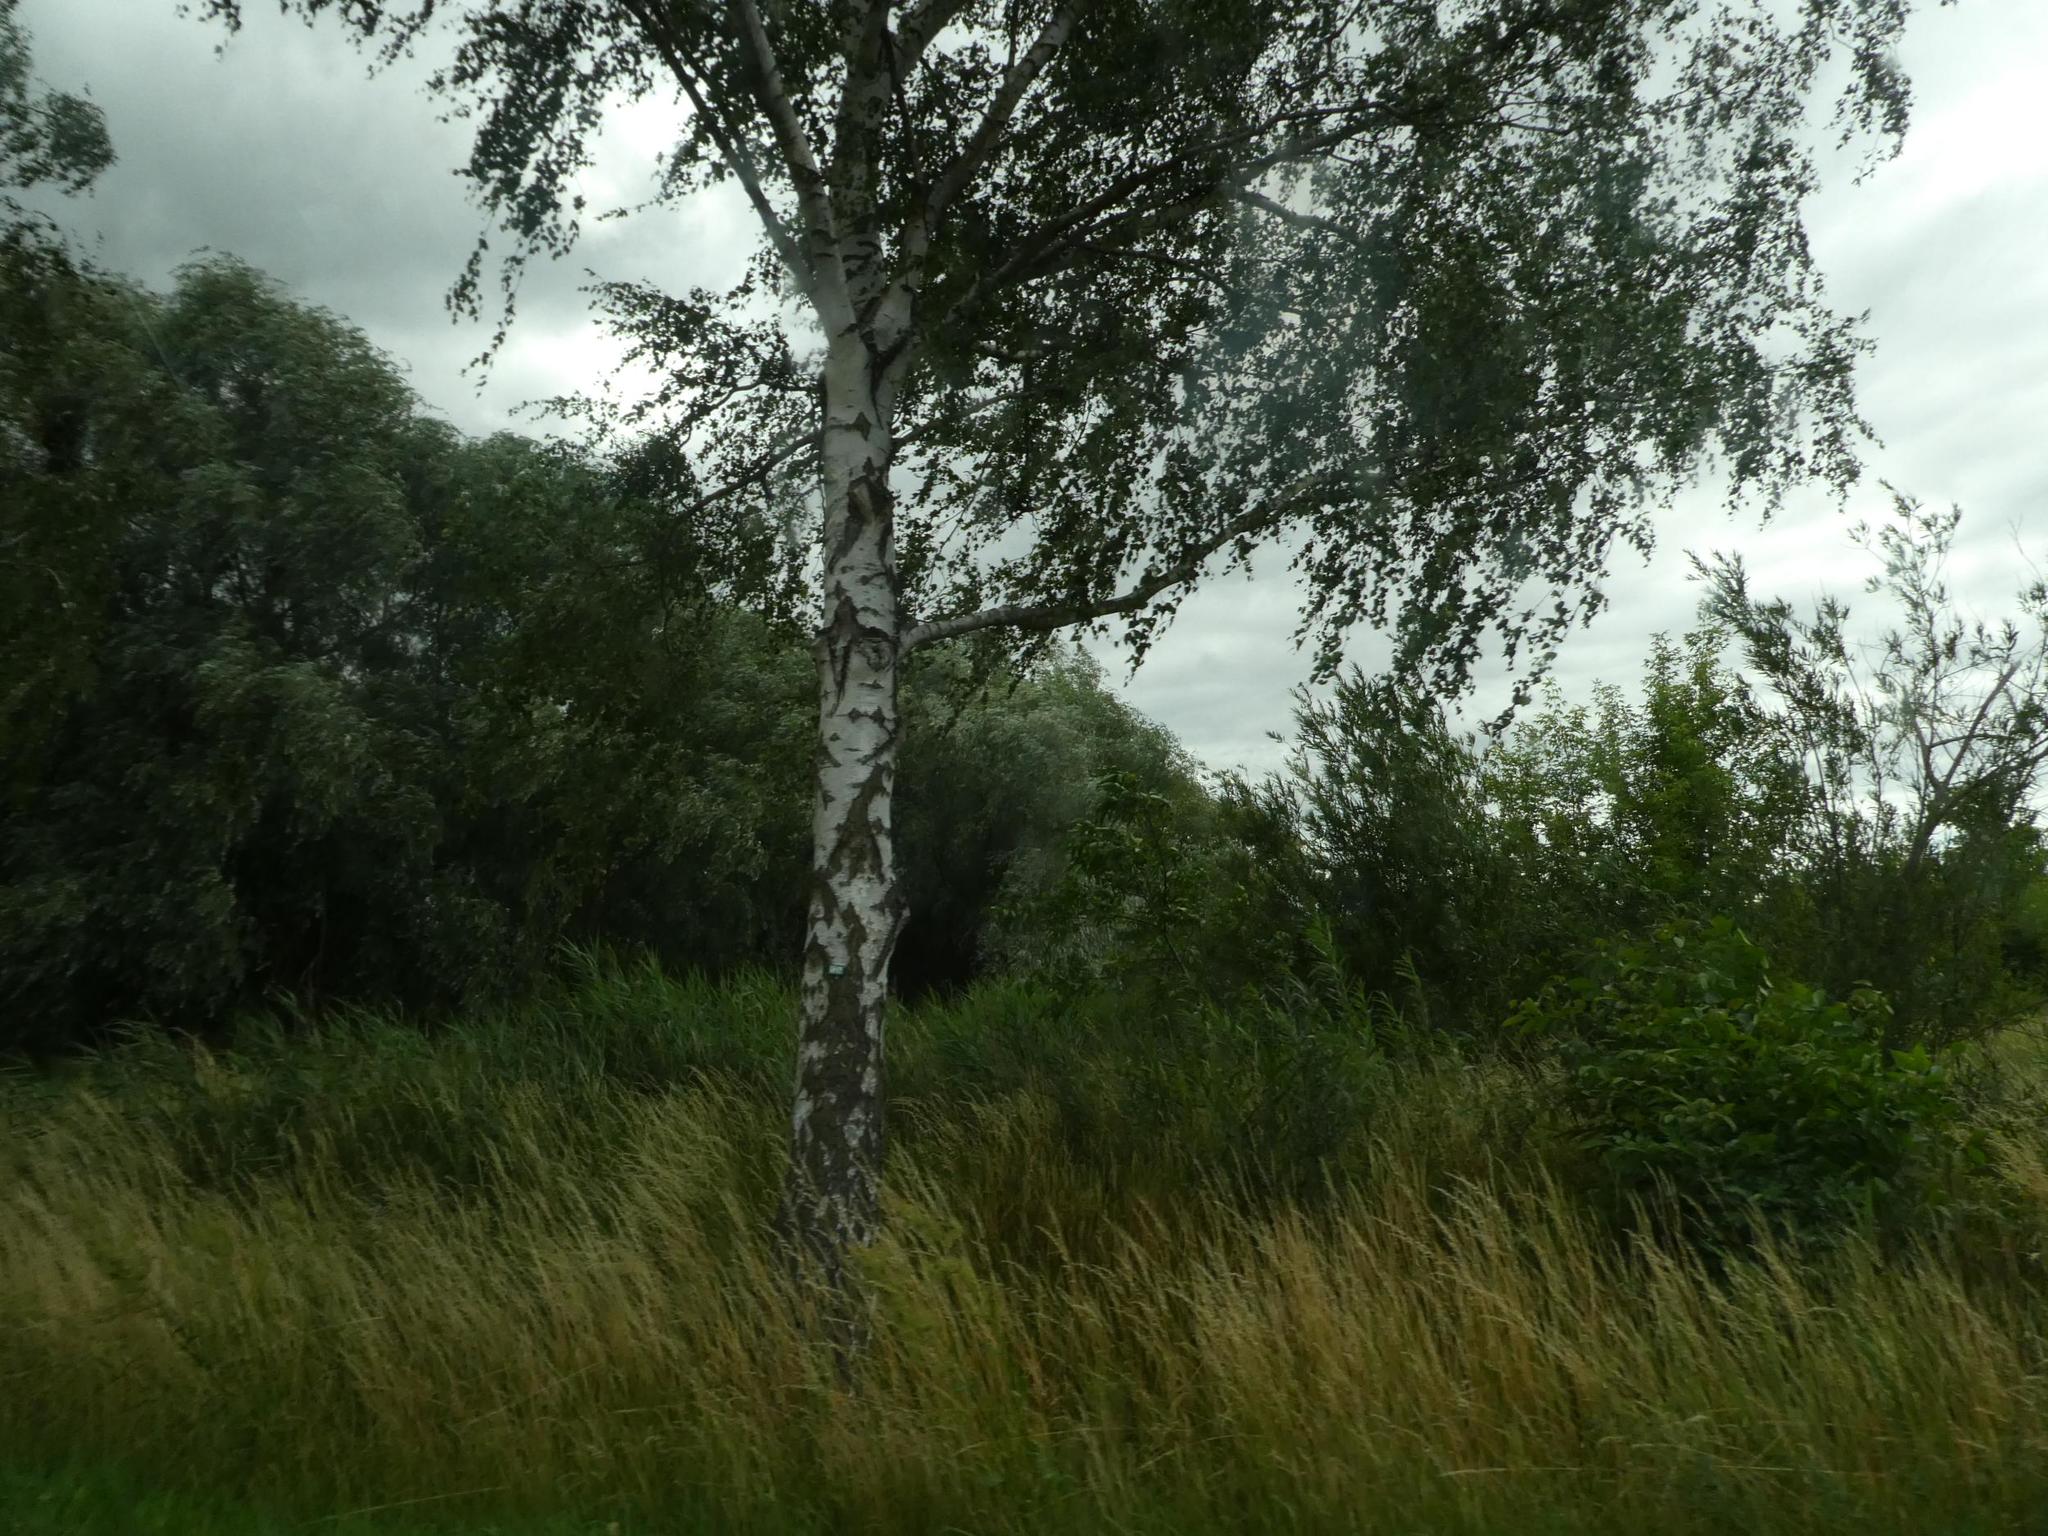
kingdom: Plantae
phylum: Tracheophyta
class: Magnoliopsida
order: Fagales
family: Betulaceae
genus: Betula
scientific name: Betula pendula
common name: Silver birch
